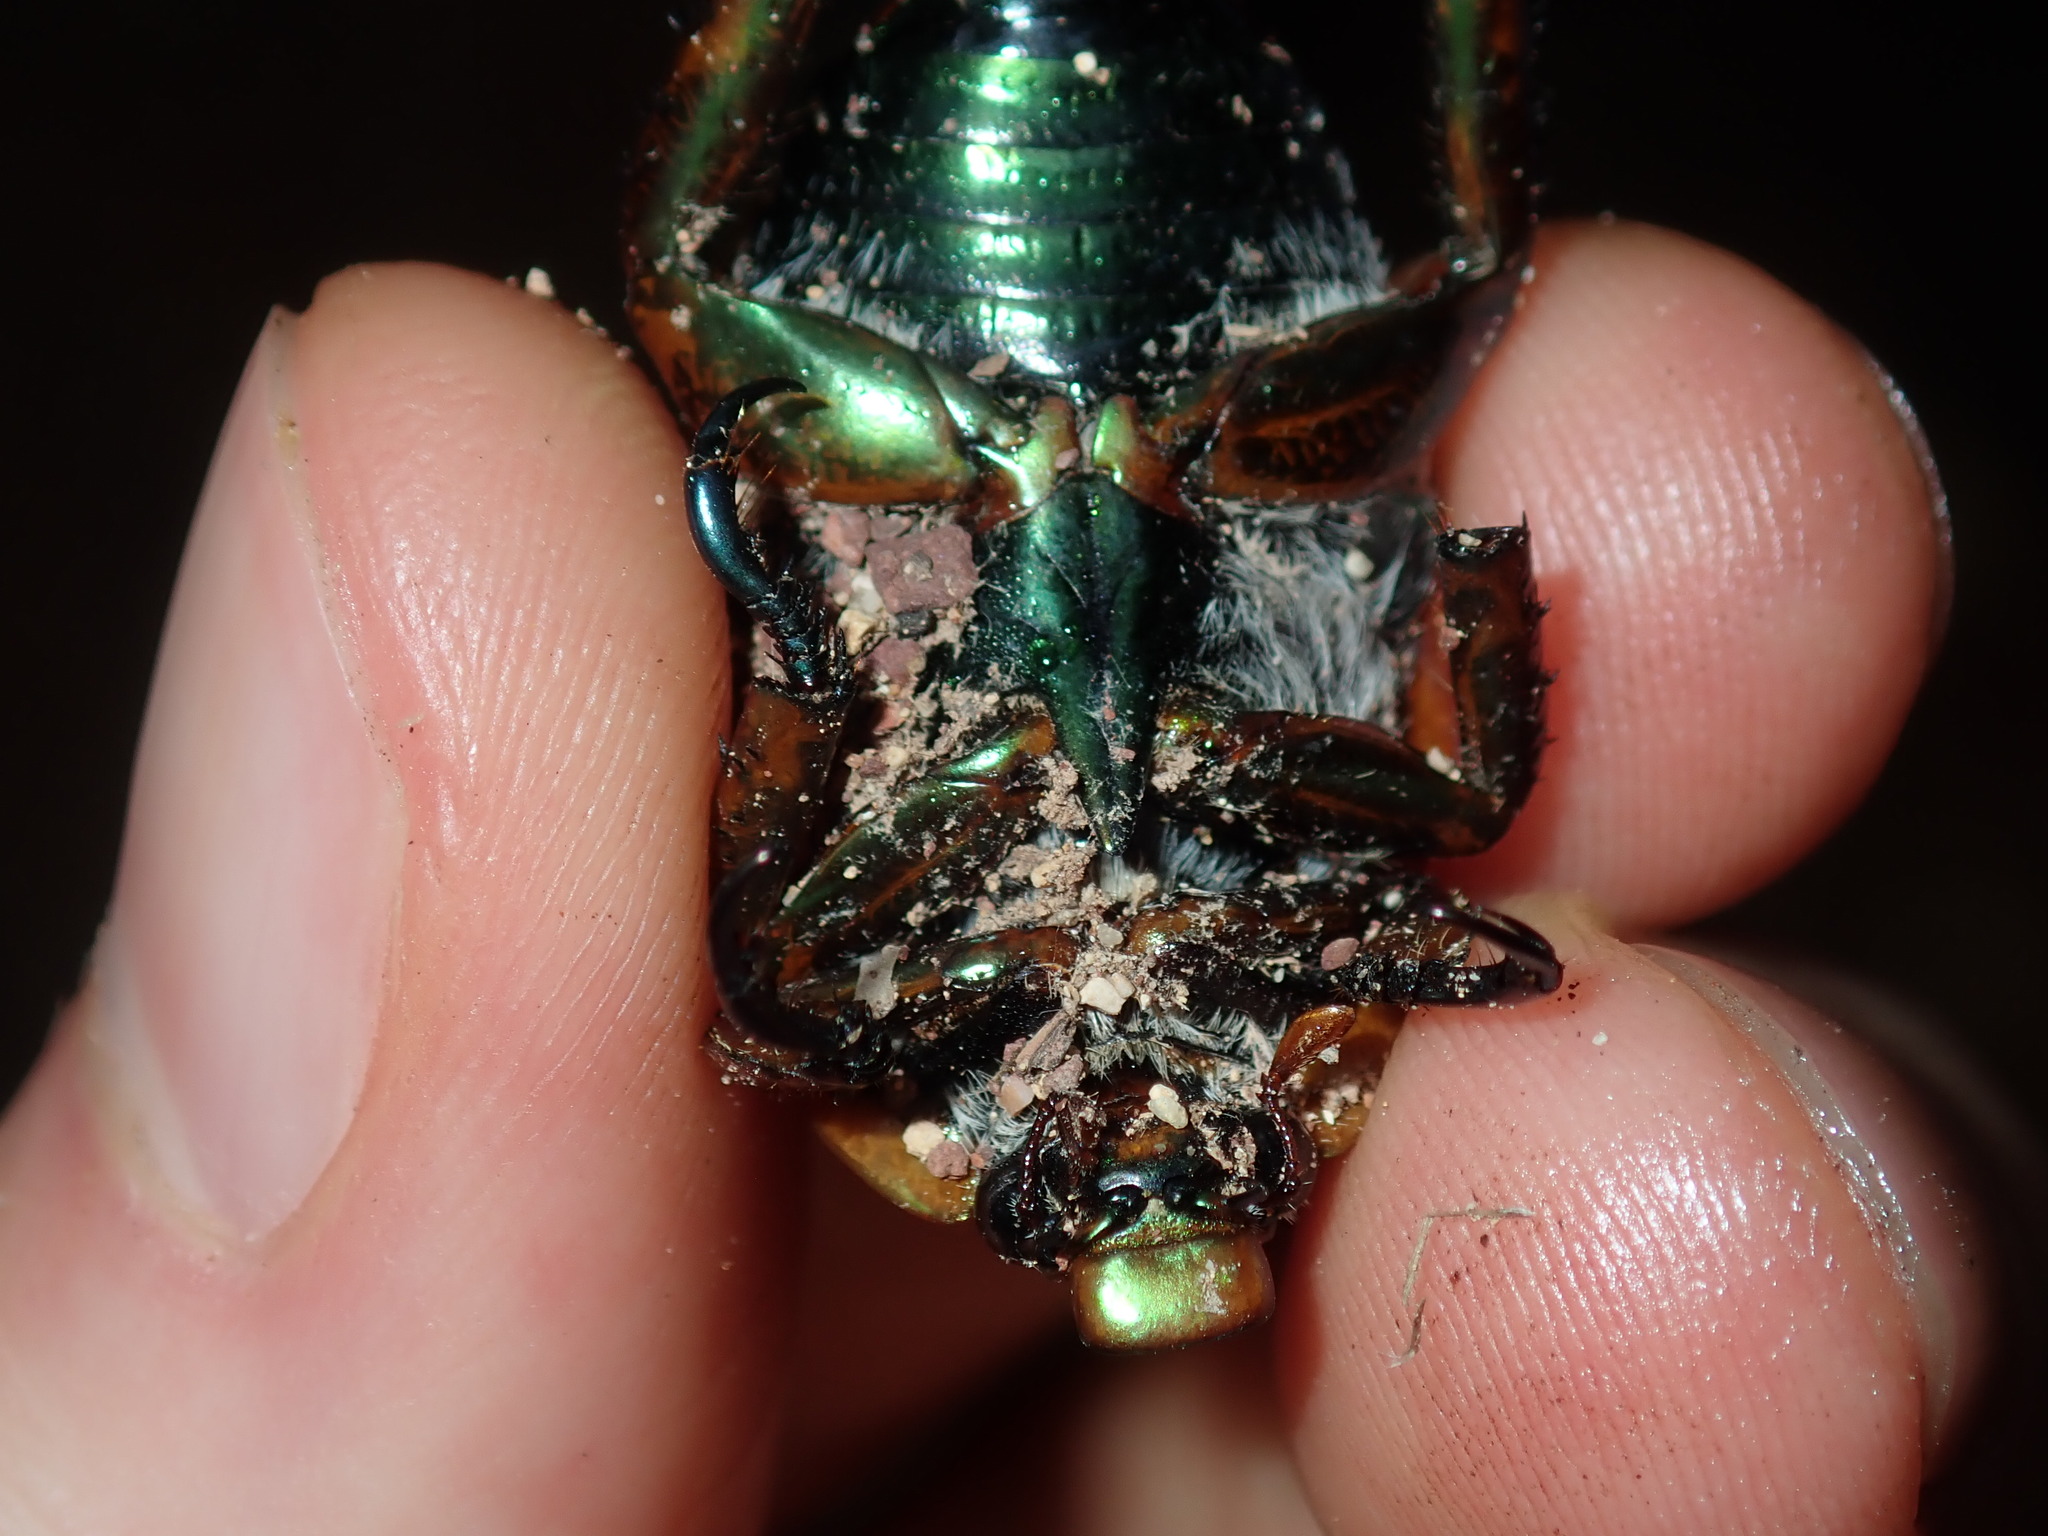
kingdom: Animalia
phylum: Arthropoda
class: Insecta
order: Coleoptera
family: Scarabaeidae
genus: Anoplognathus
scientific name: Anoplognathus viriditarsis
